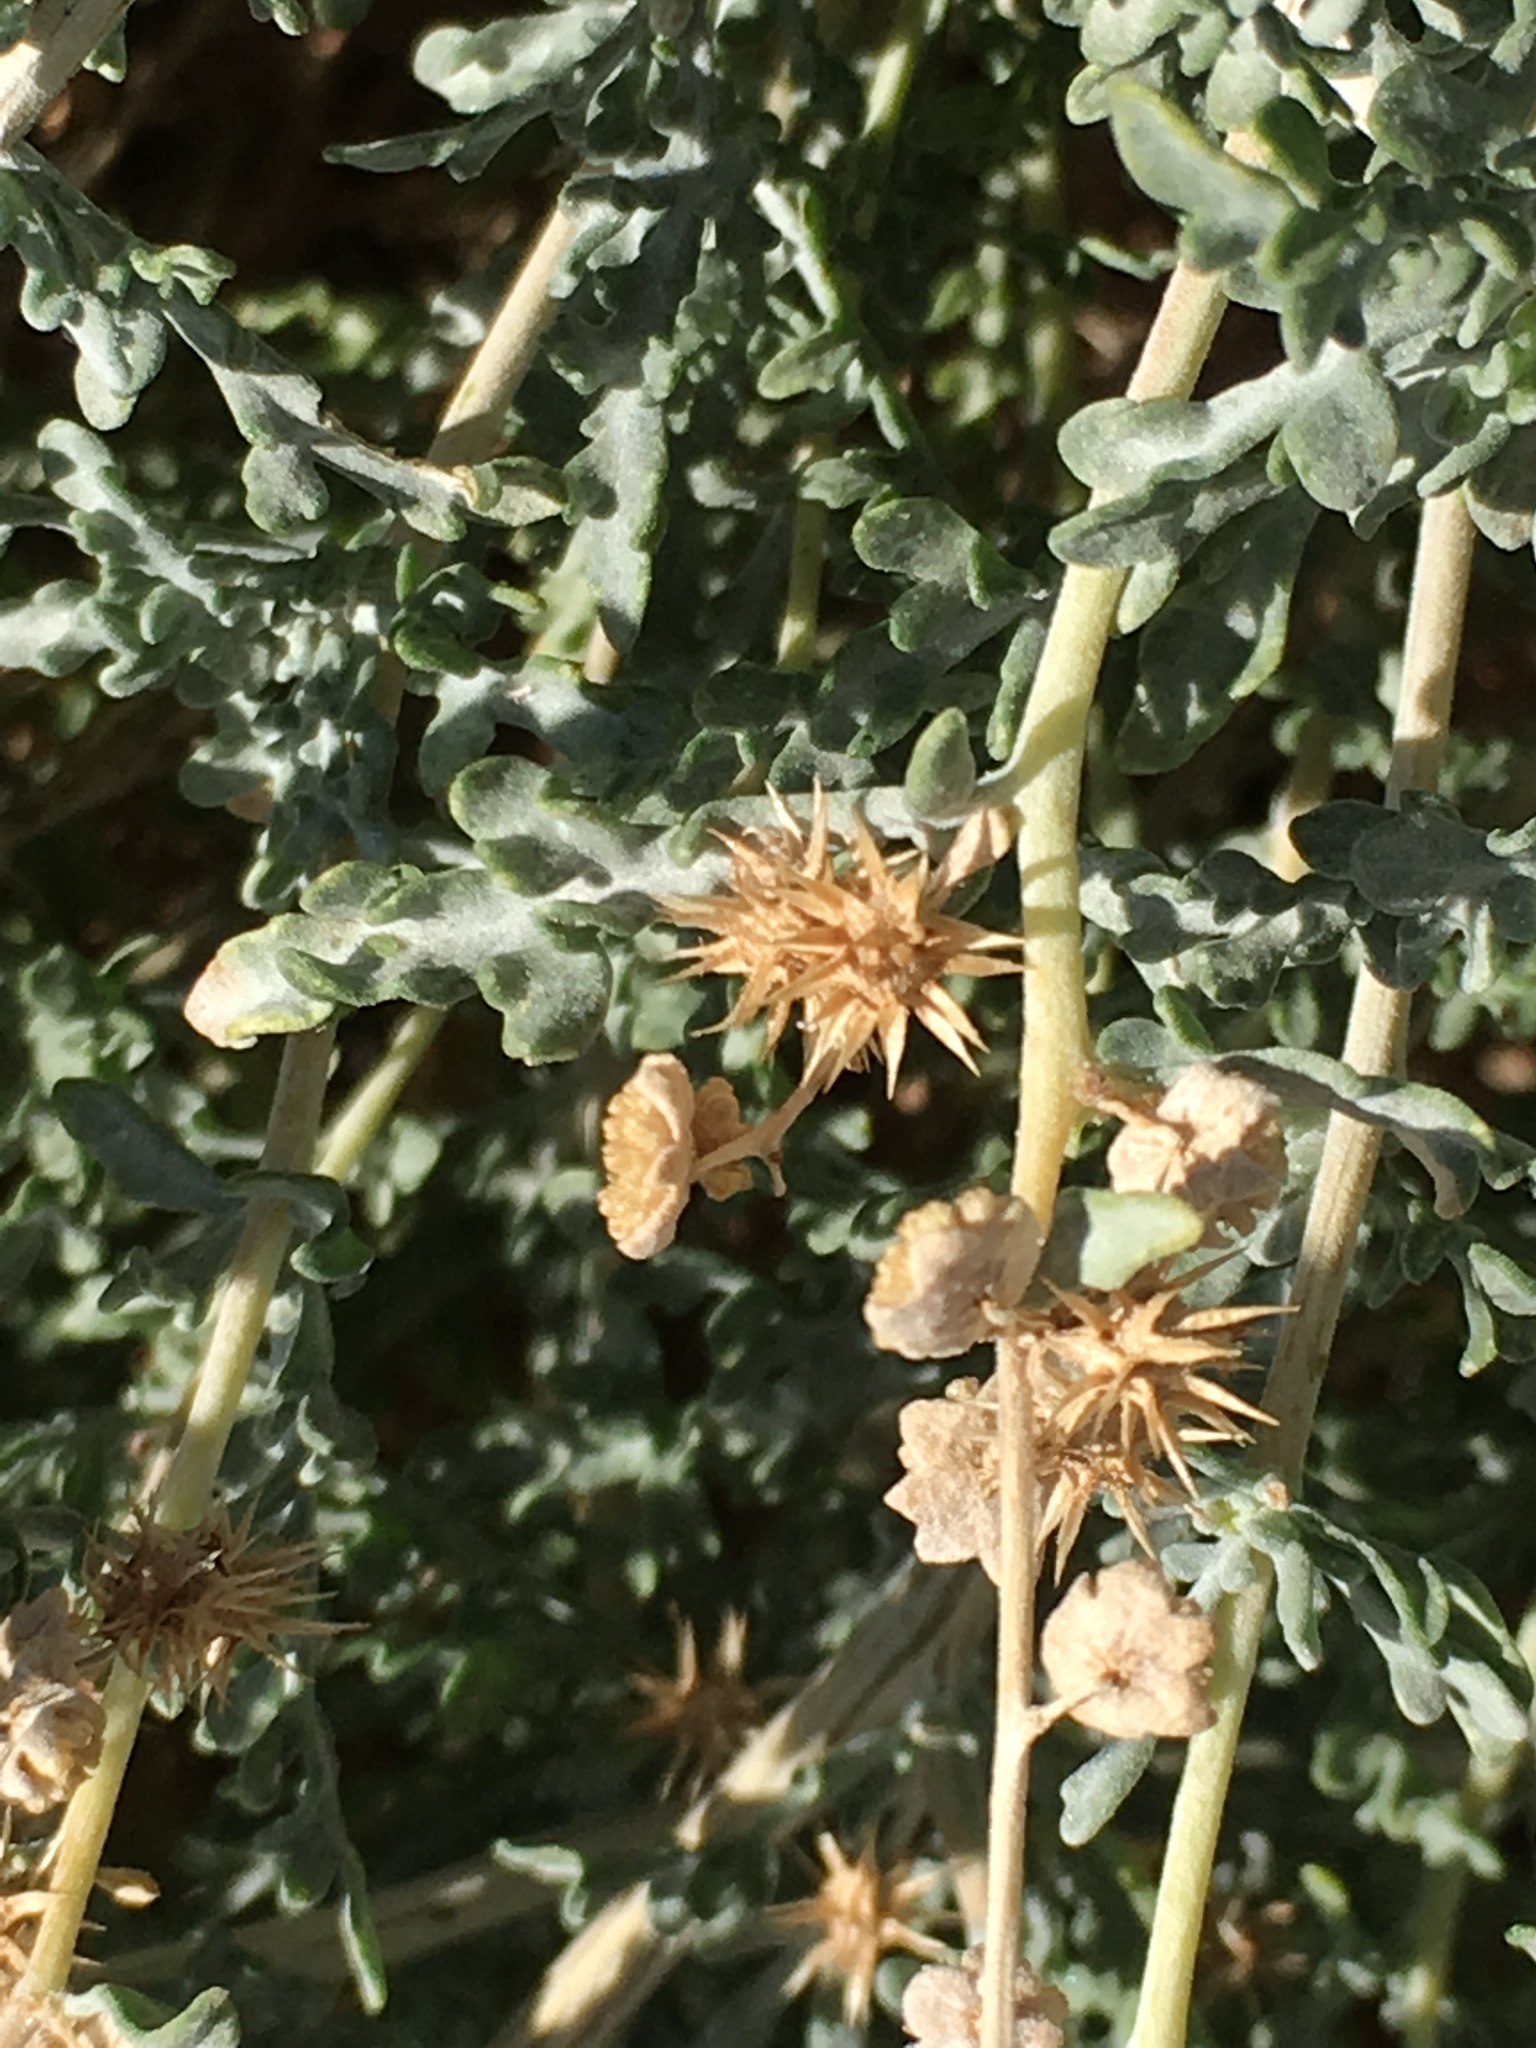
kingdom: Plantae
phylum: Tracheophyta
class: Magnoliopsida
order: Asterales
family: Asteraceae
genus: Ambrosia
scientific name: Ambrosia dumosa
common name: Bur-sage
